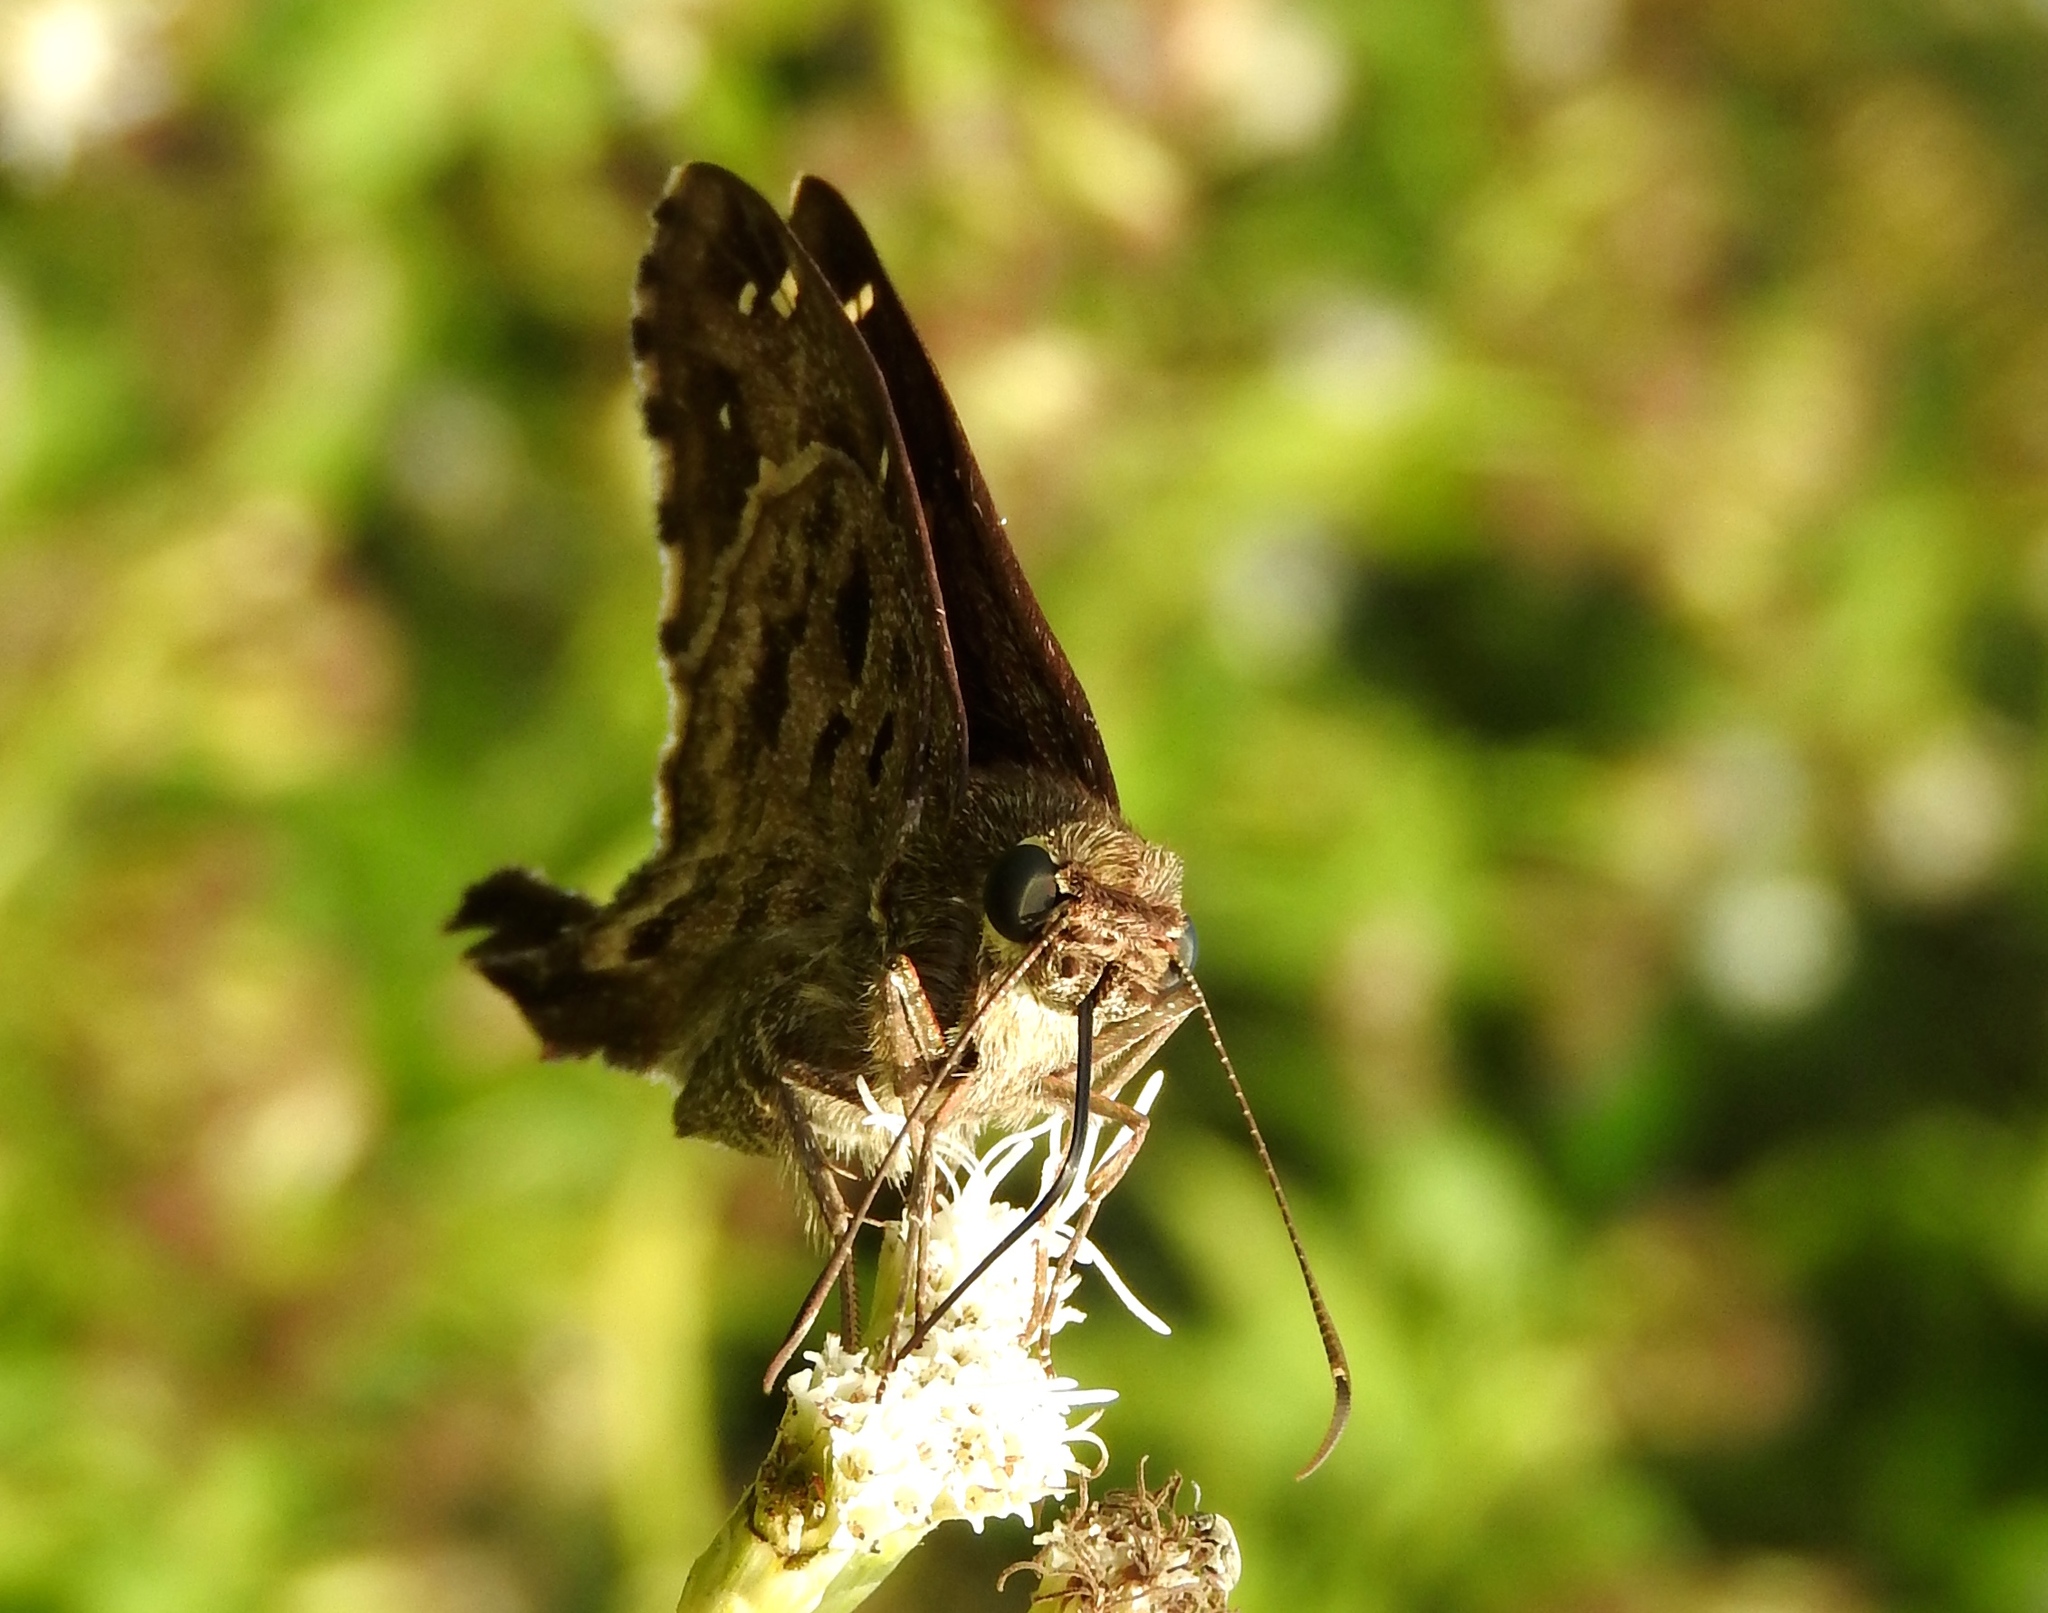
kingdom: Animalia
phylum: Arthropoda
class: Insecta
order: Lepidoptera
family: Hesperiidae
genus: Thorybes
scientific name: Thorybes
